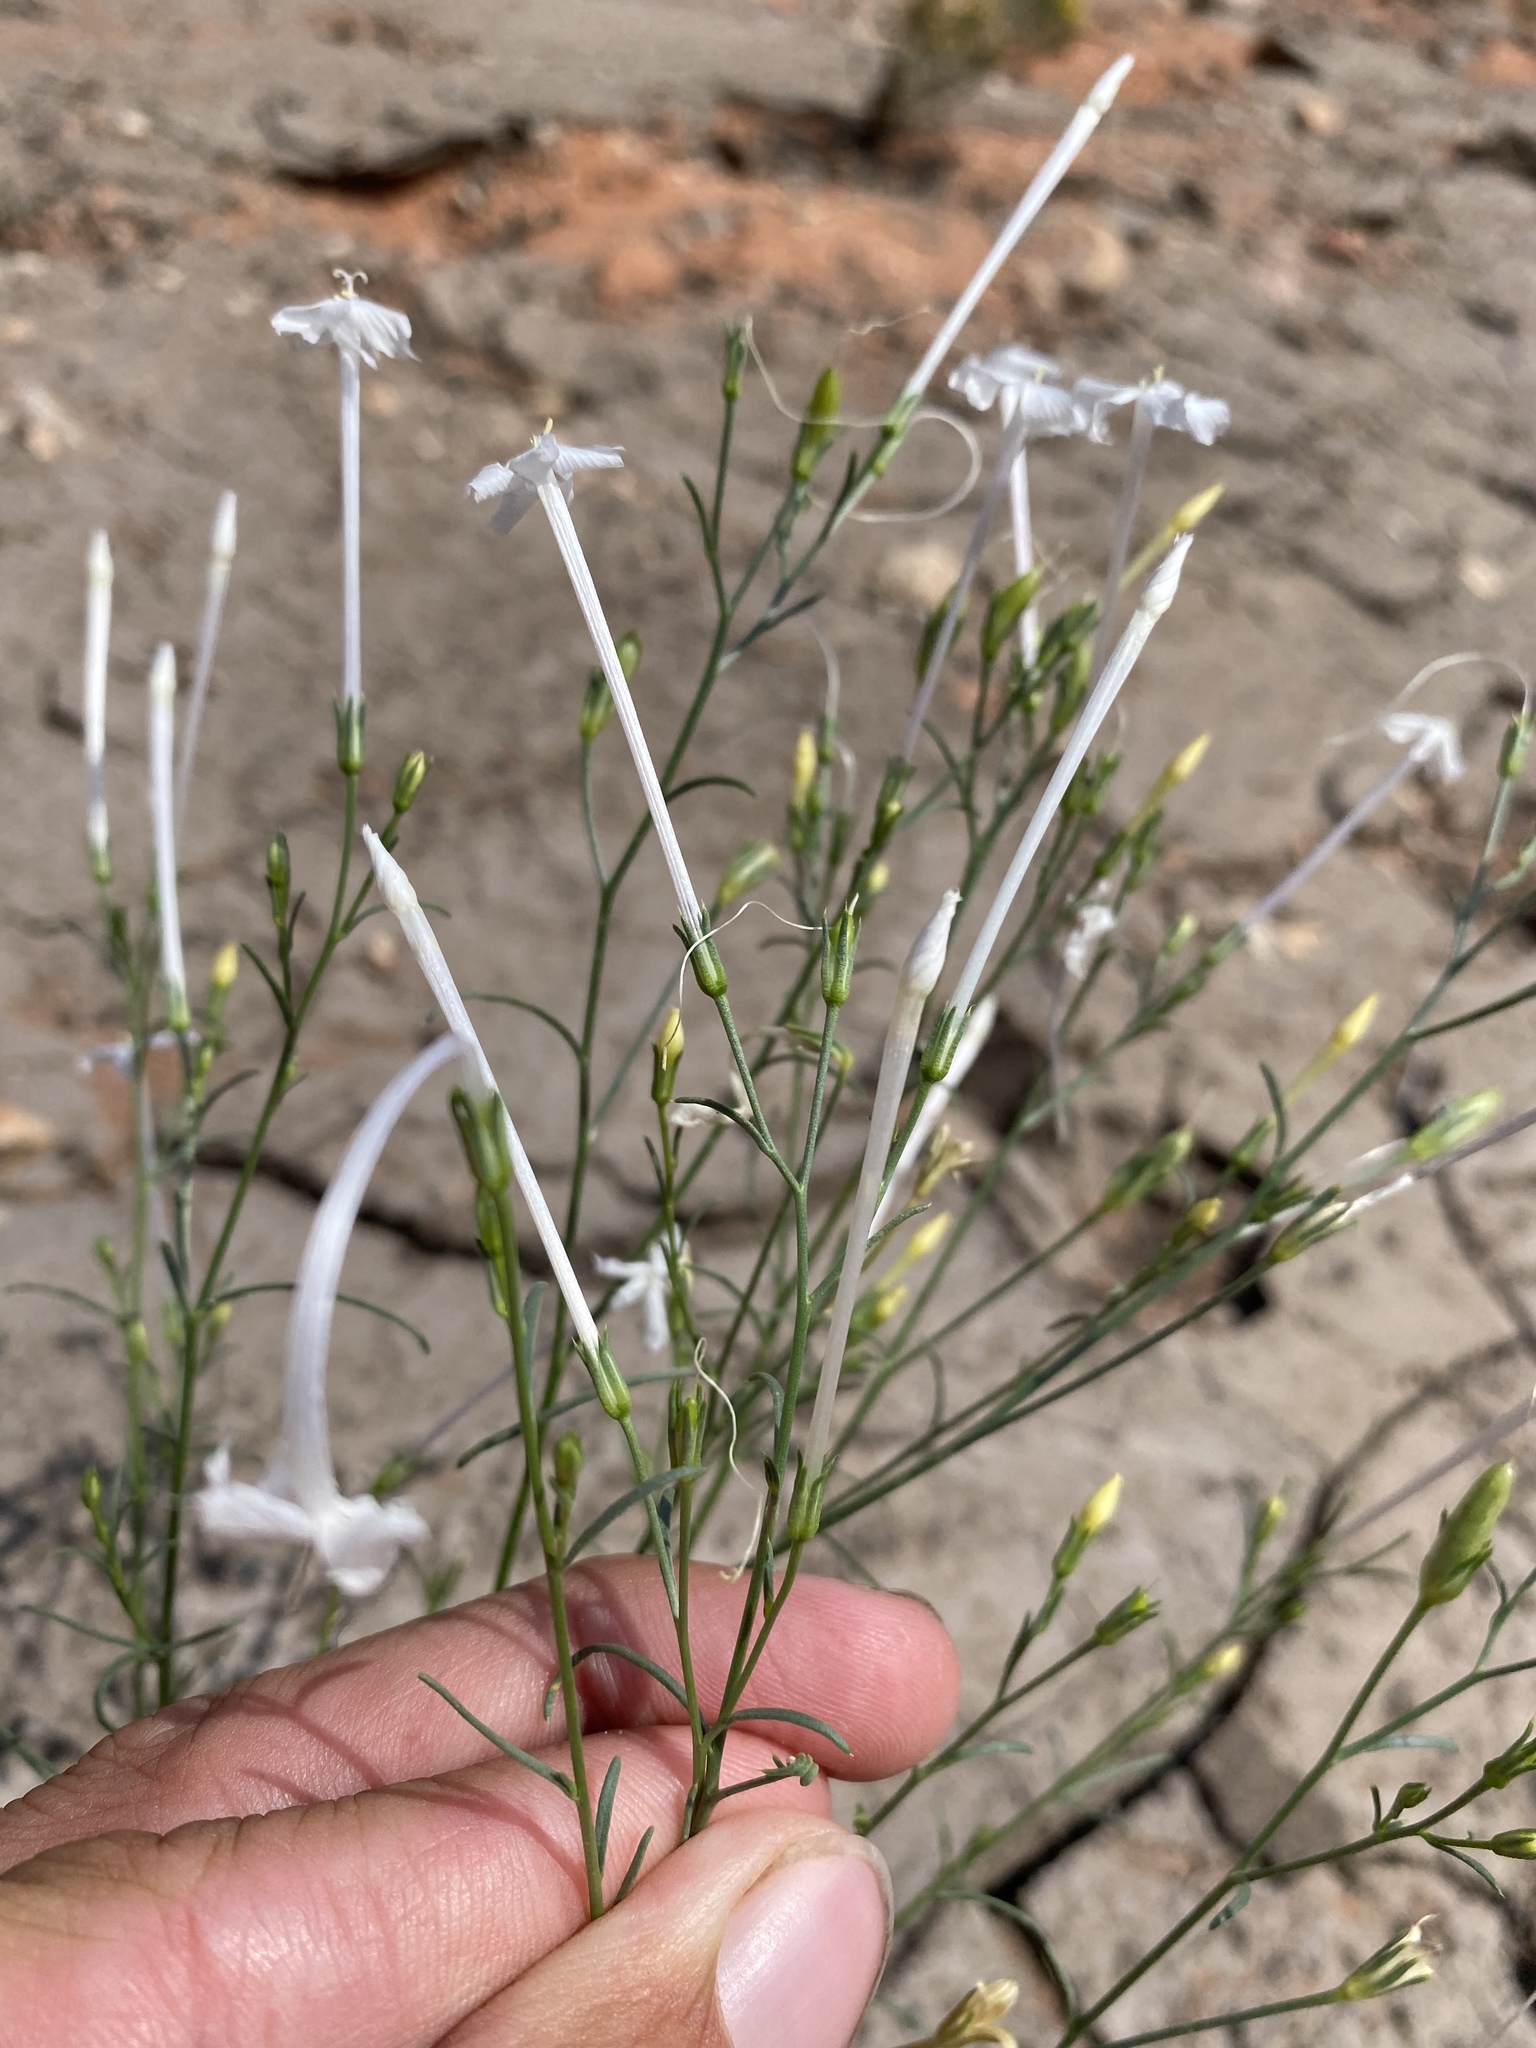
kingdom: Plantae
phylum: Tracheophyta
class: Magnoliopsida
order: Ericales
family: Polemoniaceae
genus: Ipomopsis
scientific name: Ipomopsis longiflora
